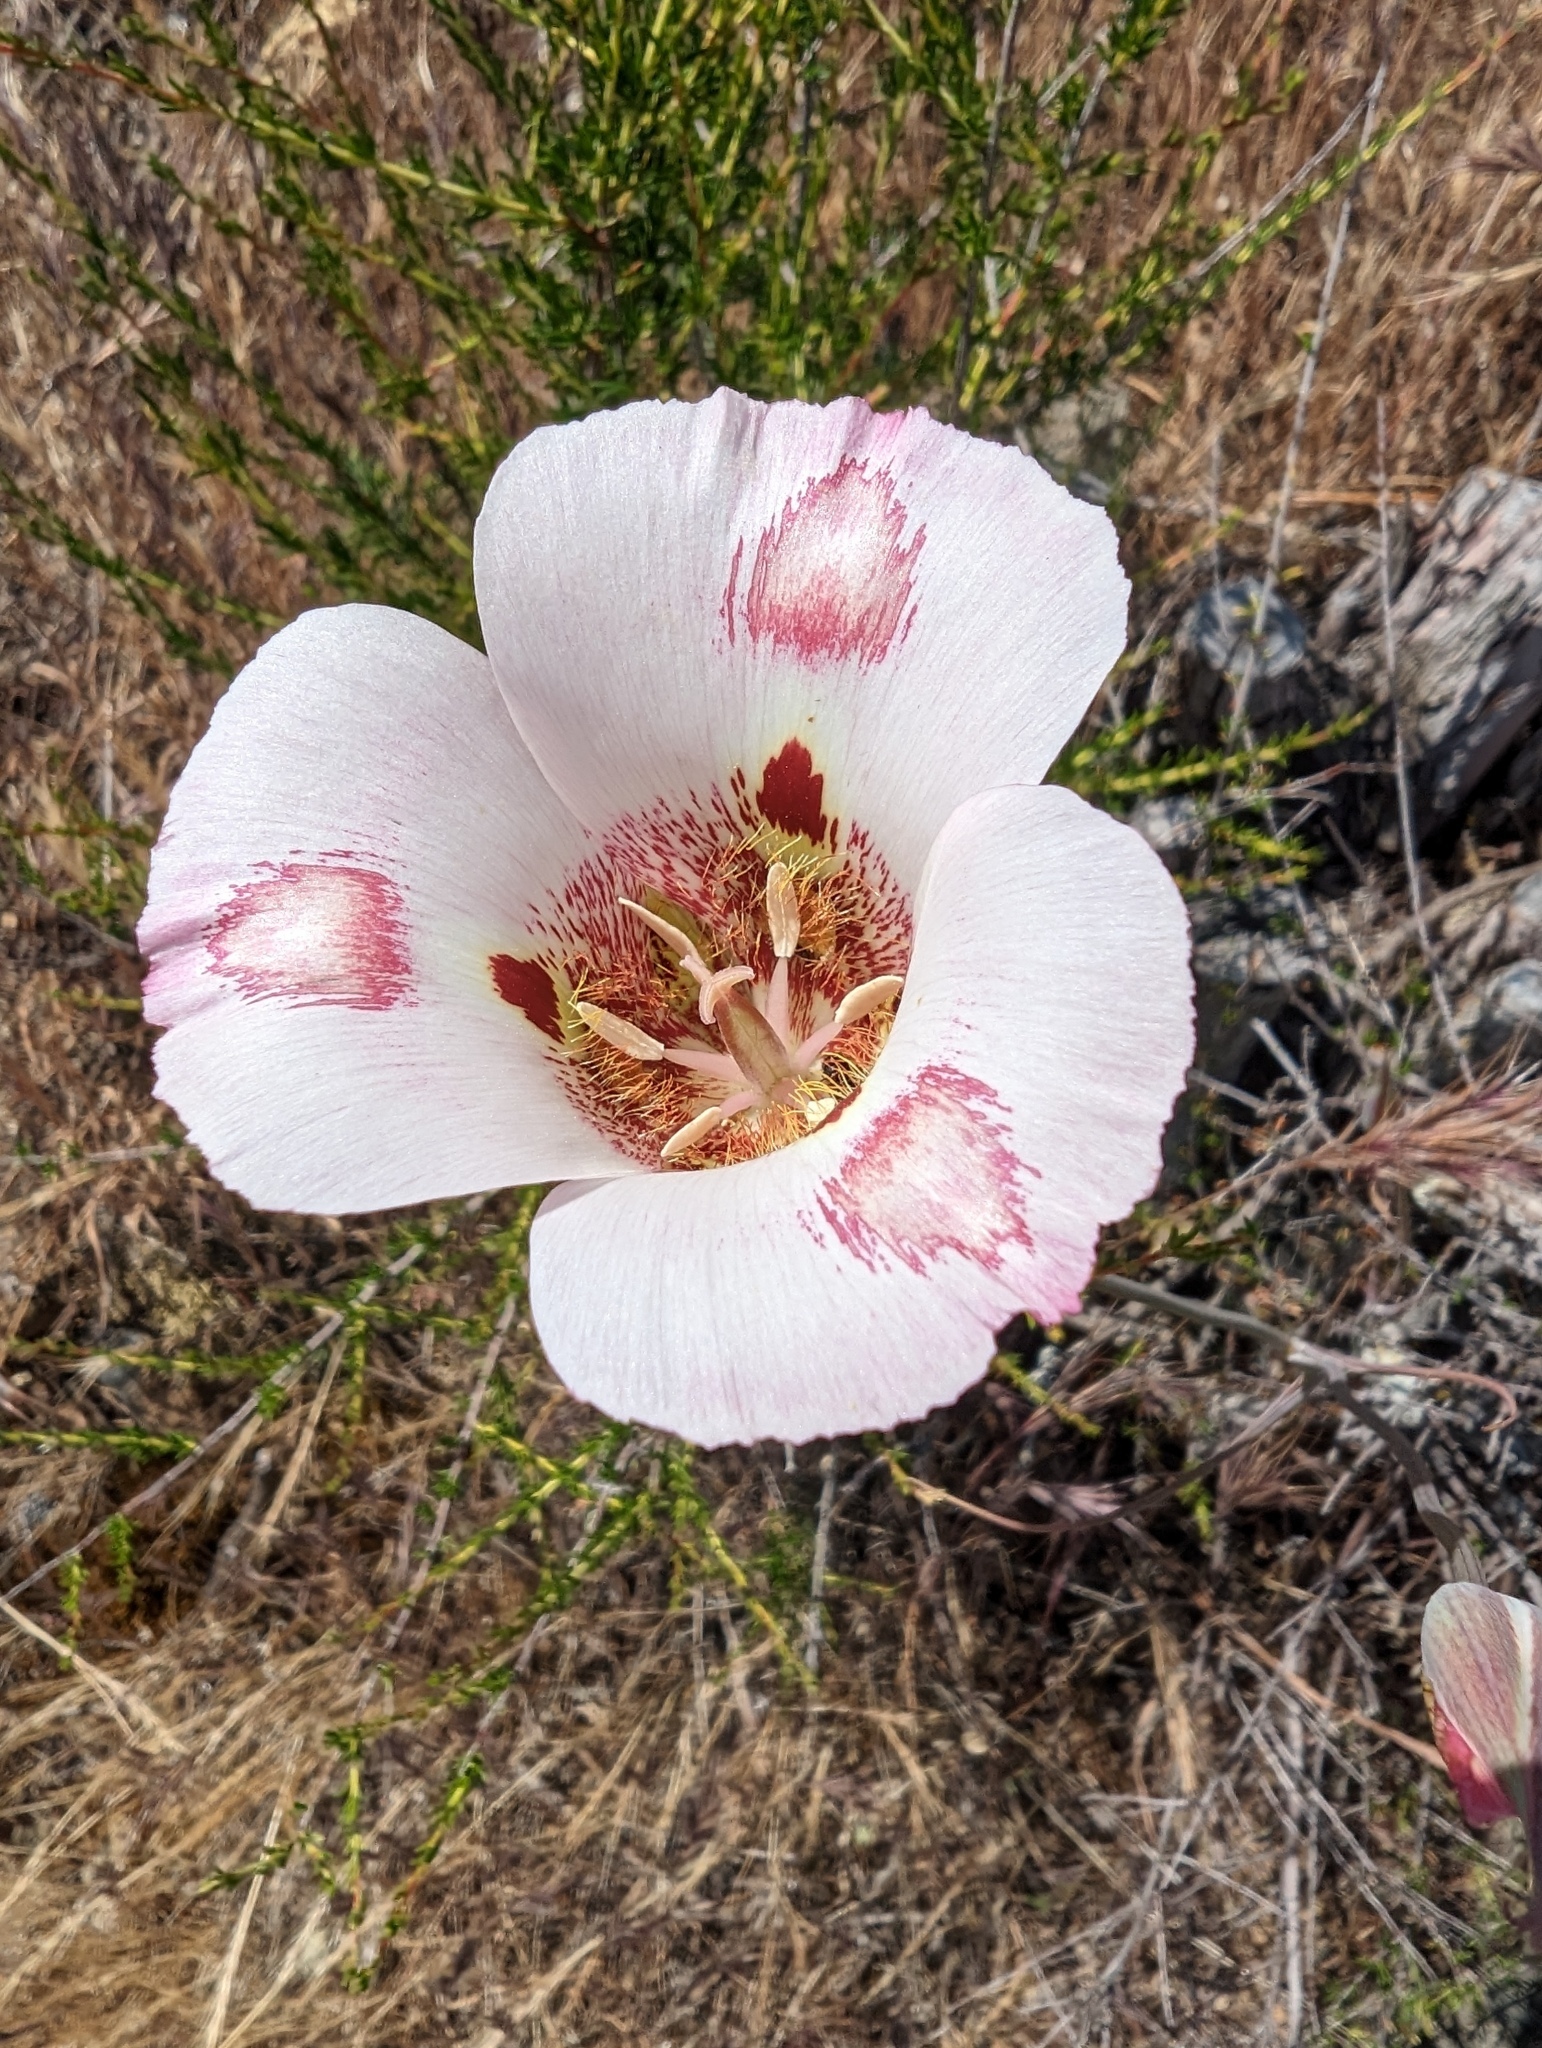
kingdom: Plantae
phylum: Tracheophyta
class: Liliopsida
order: Liliales
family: Liliaceae
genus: Calochortus
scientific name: Calochortus venustus
